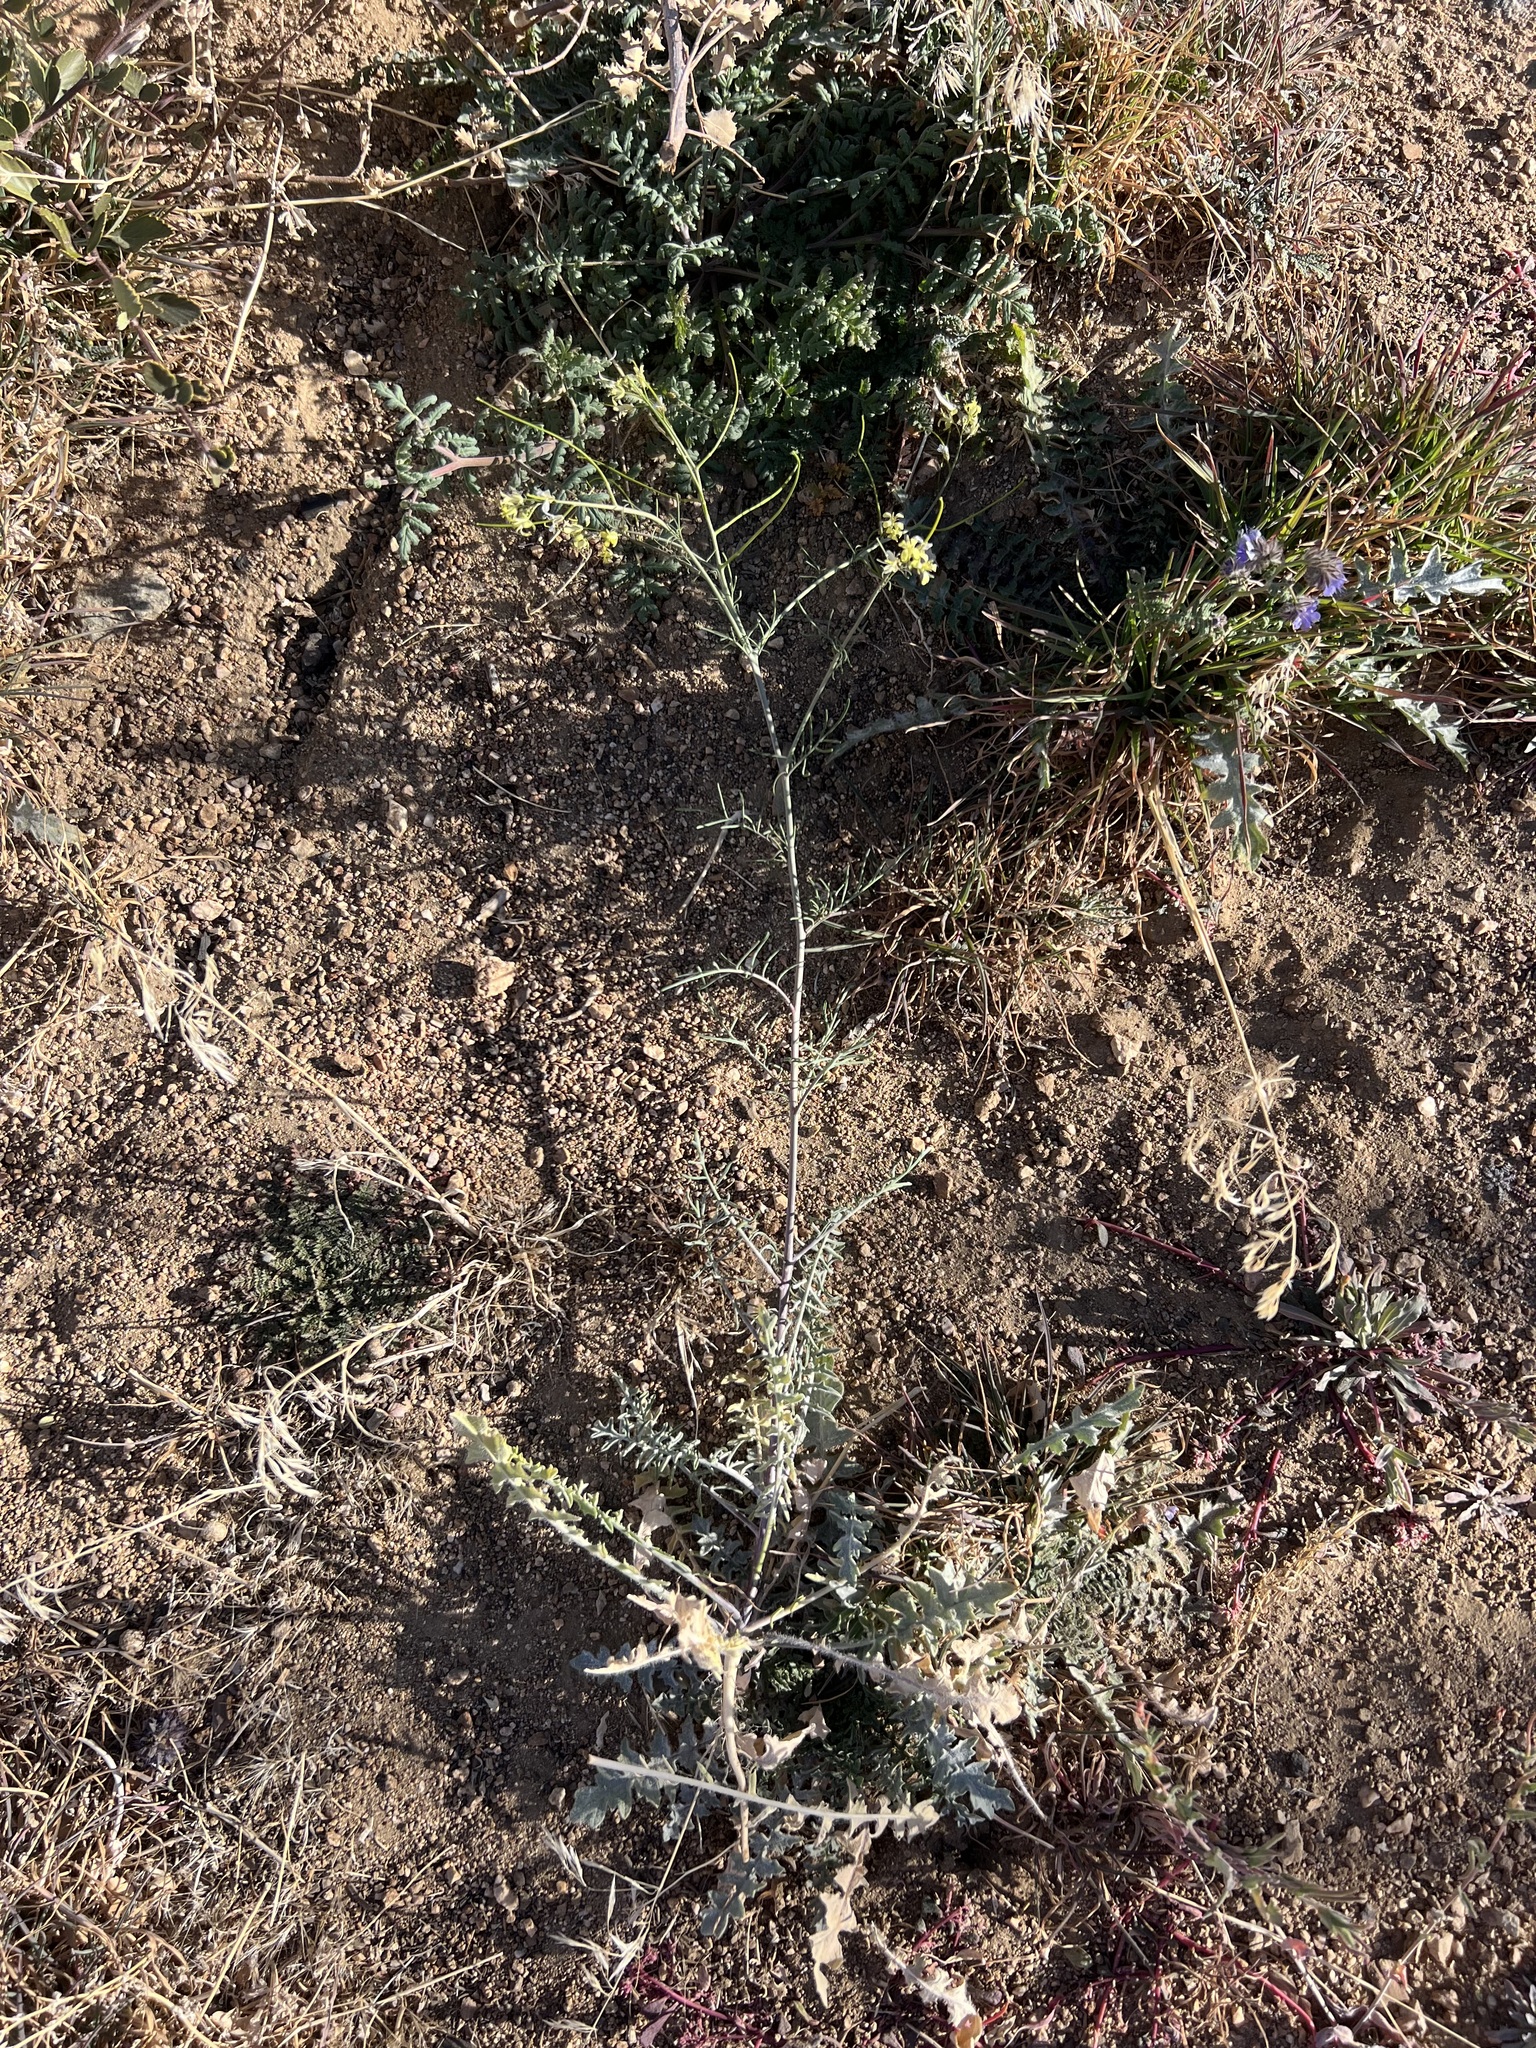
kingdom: Plantae
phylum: Tracheophyta
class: Magnoliopsida
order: Brassicales
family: Brassicaceae
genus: Sisymbrium
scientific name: Sisymbrium altissimum
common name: Tall rocket
